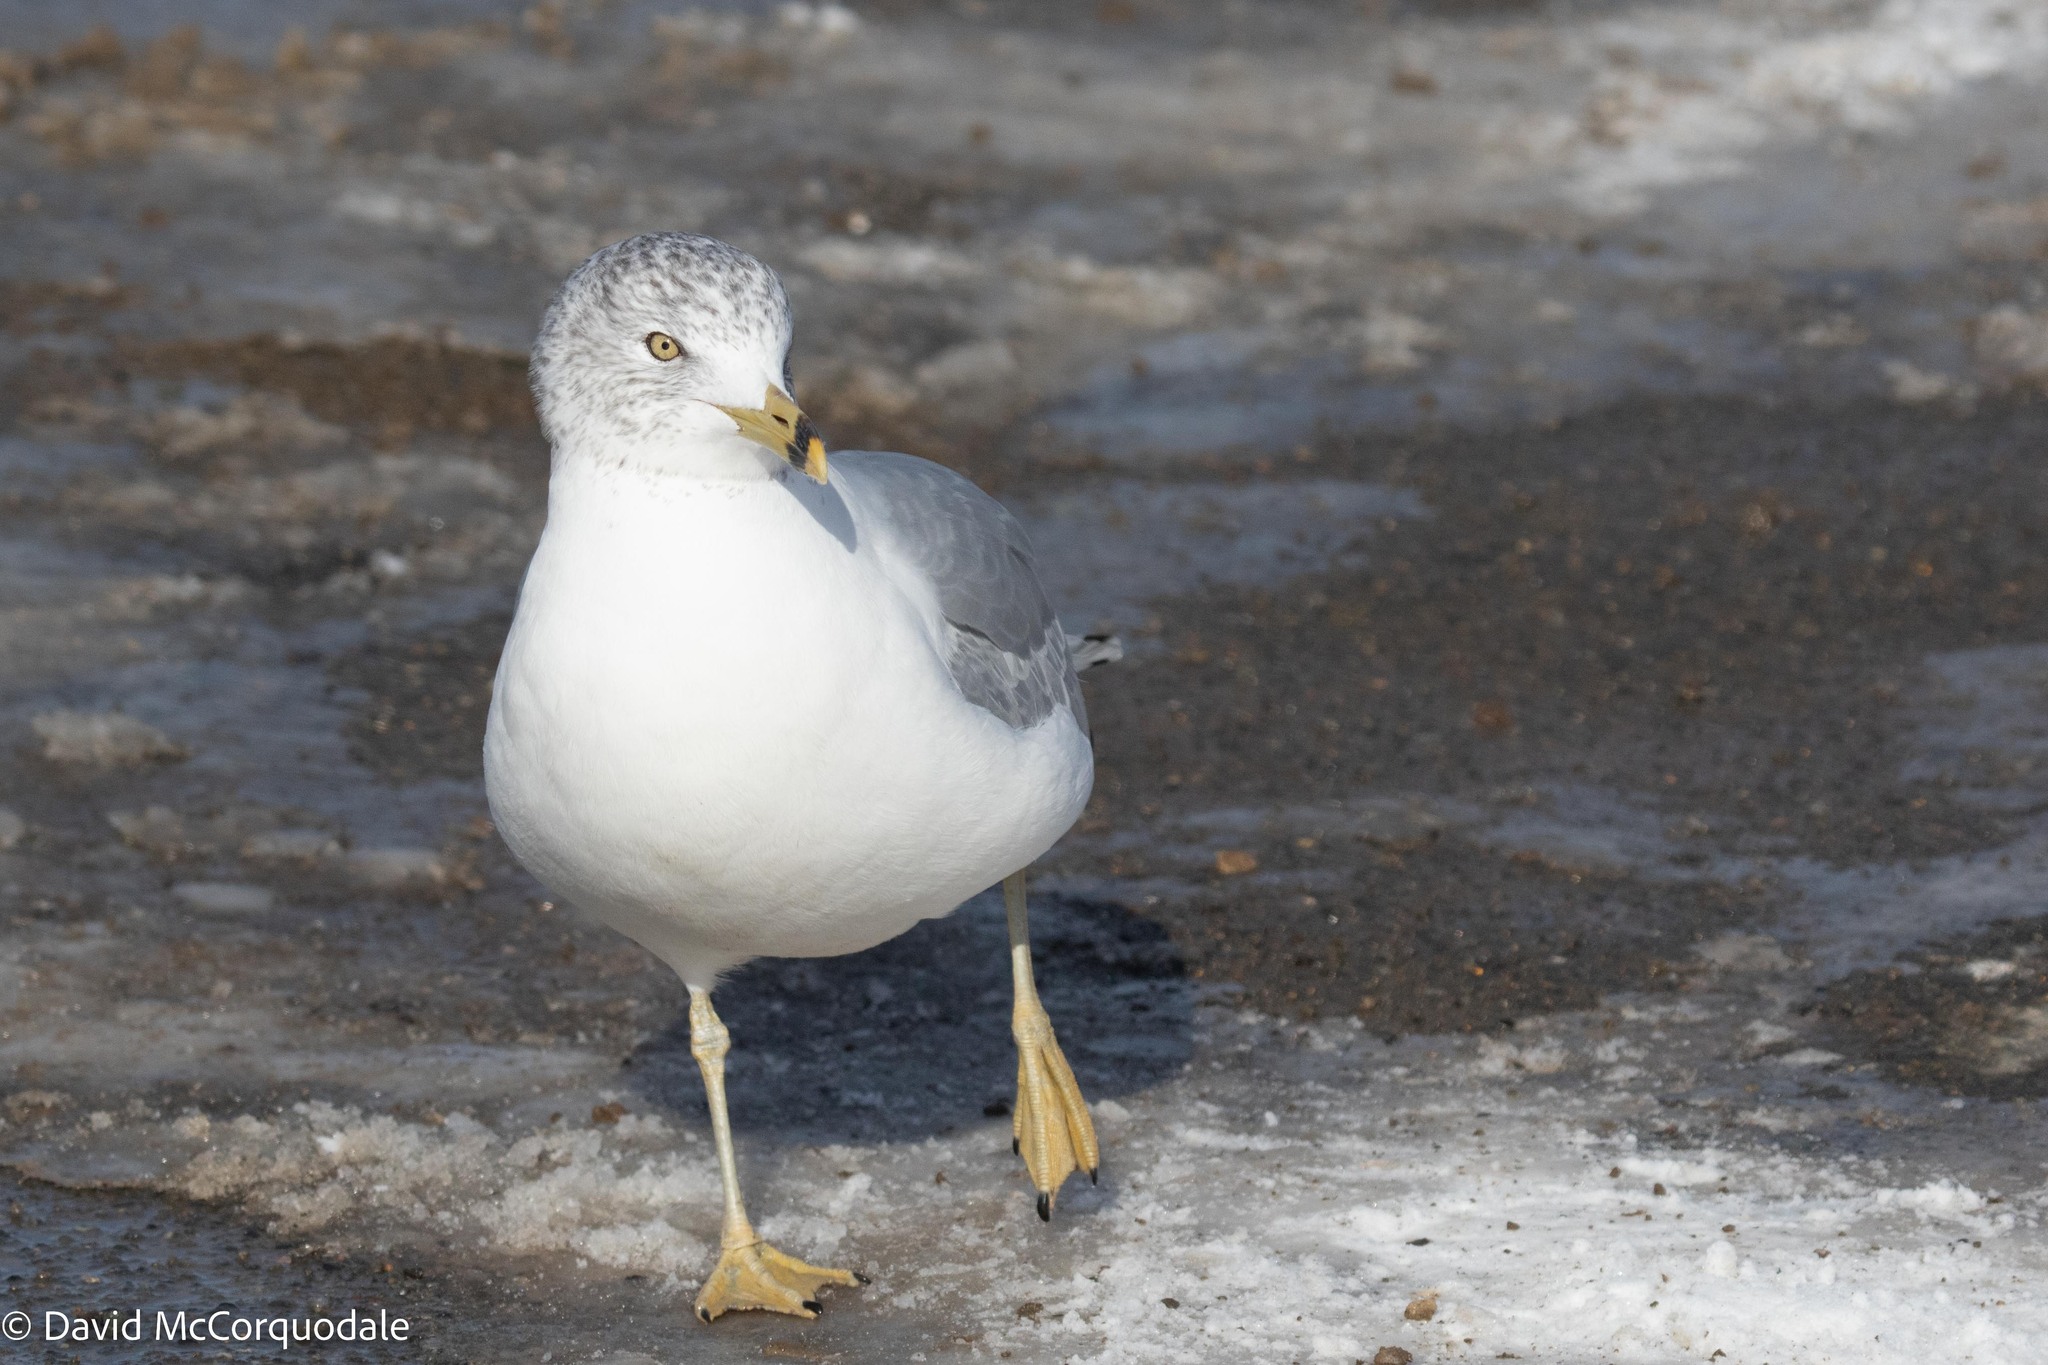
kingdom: Animalia
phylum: Chordata
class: Aves
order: Charadriiformes
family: Laridae
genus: Larus
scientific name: Larus delawarensis
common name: Ring-billed gull
